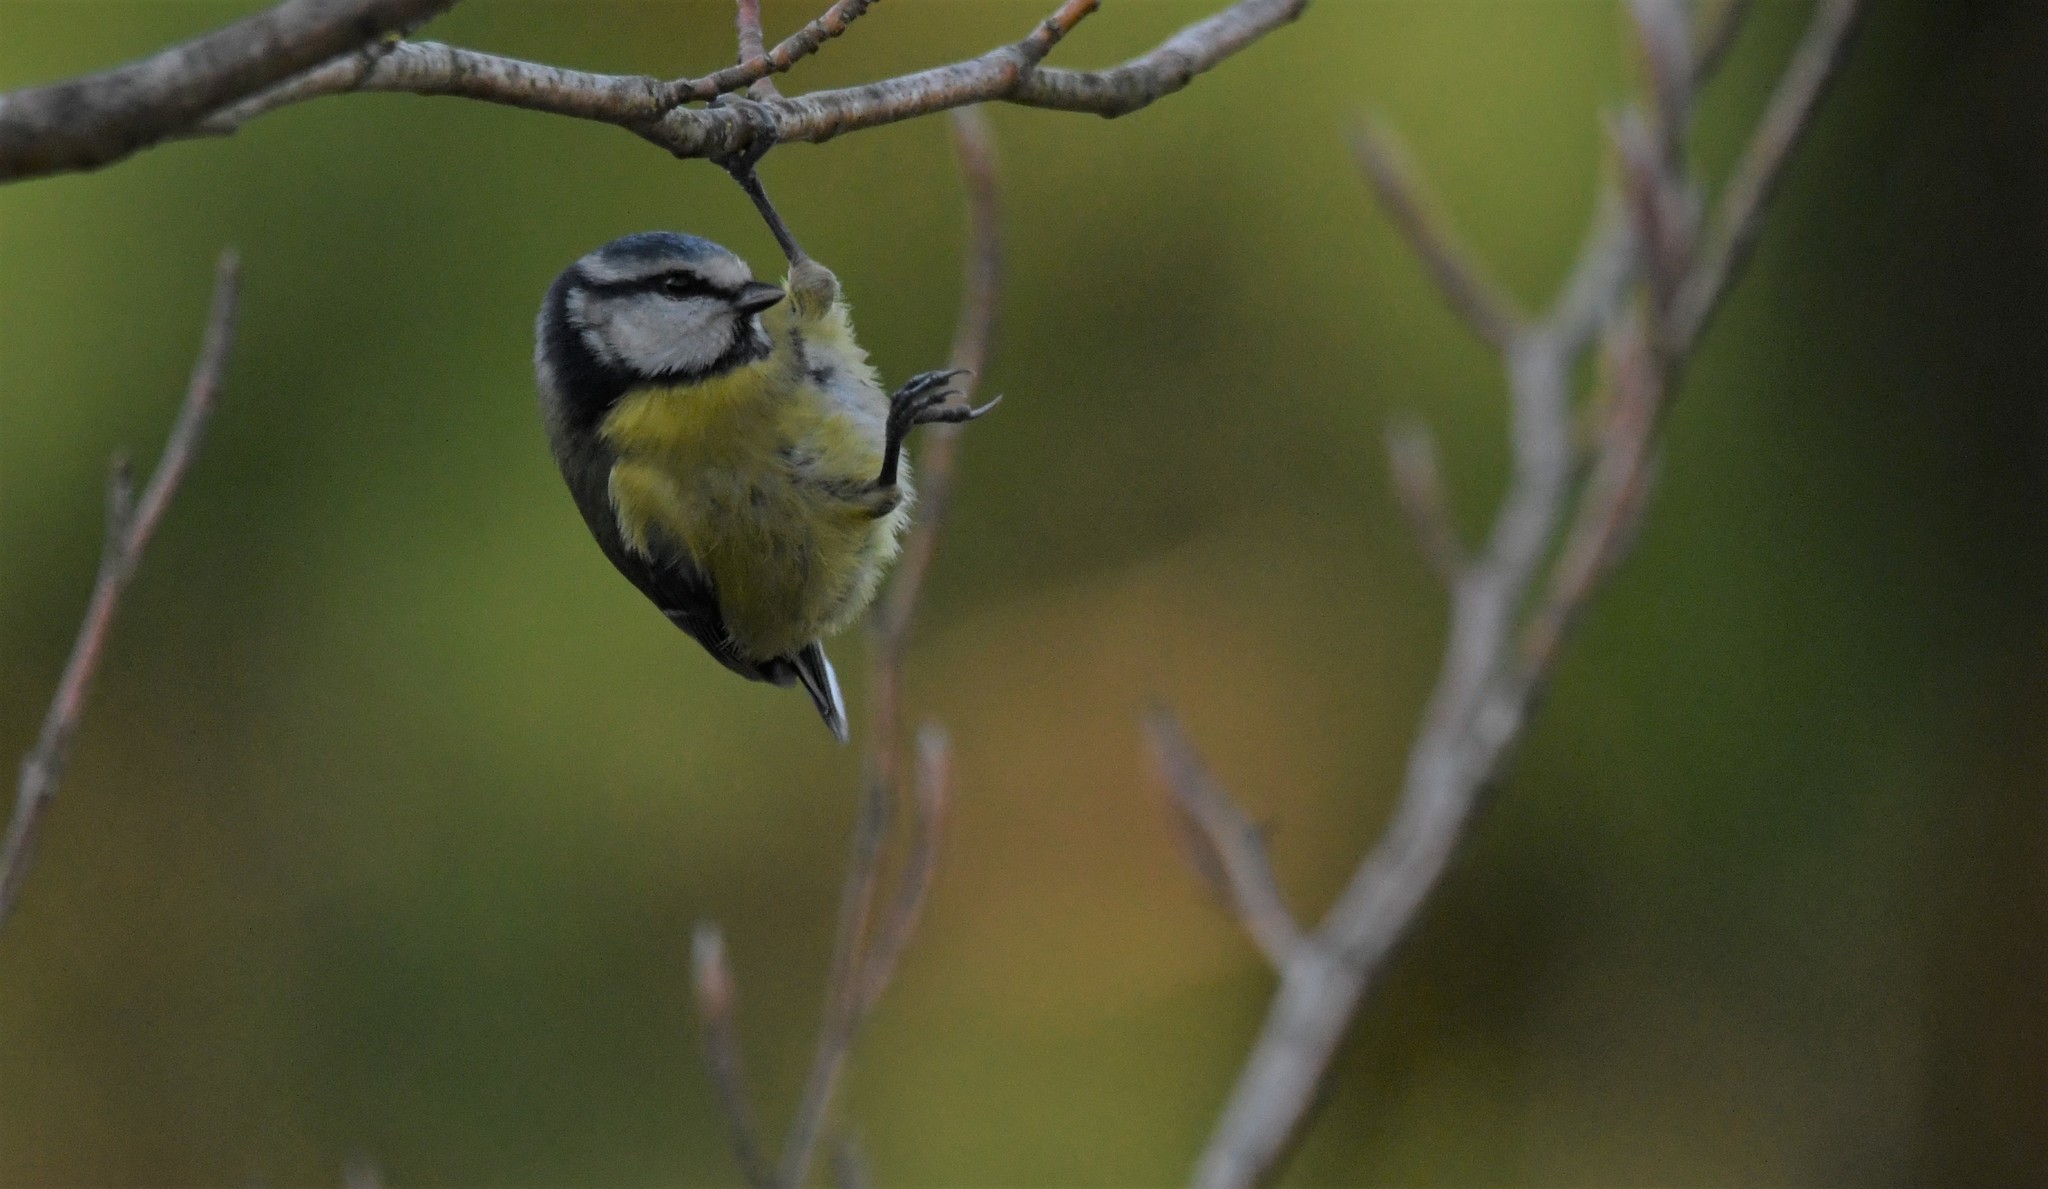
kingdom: Animalia
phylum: Chordata
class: Aves
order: Passeriformes
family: Paridae
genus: Cyanistes
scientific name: Cyanistes caeruleus
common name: Eurasian blue tit
